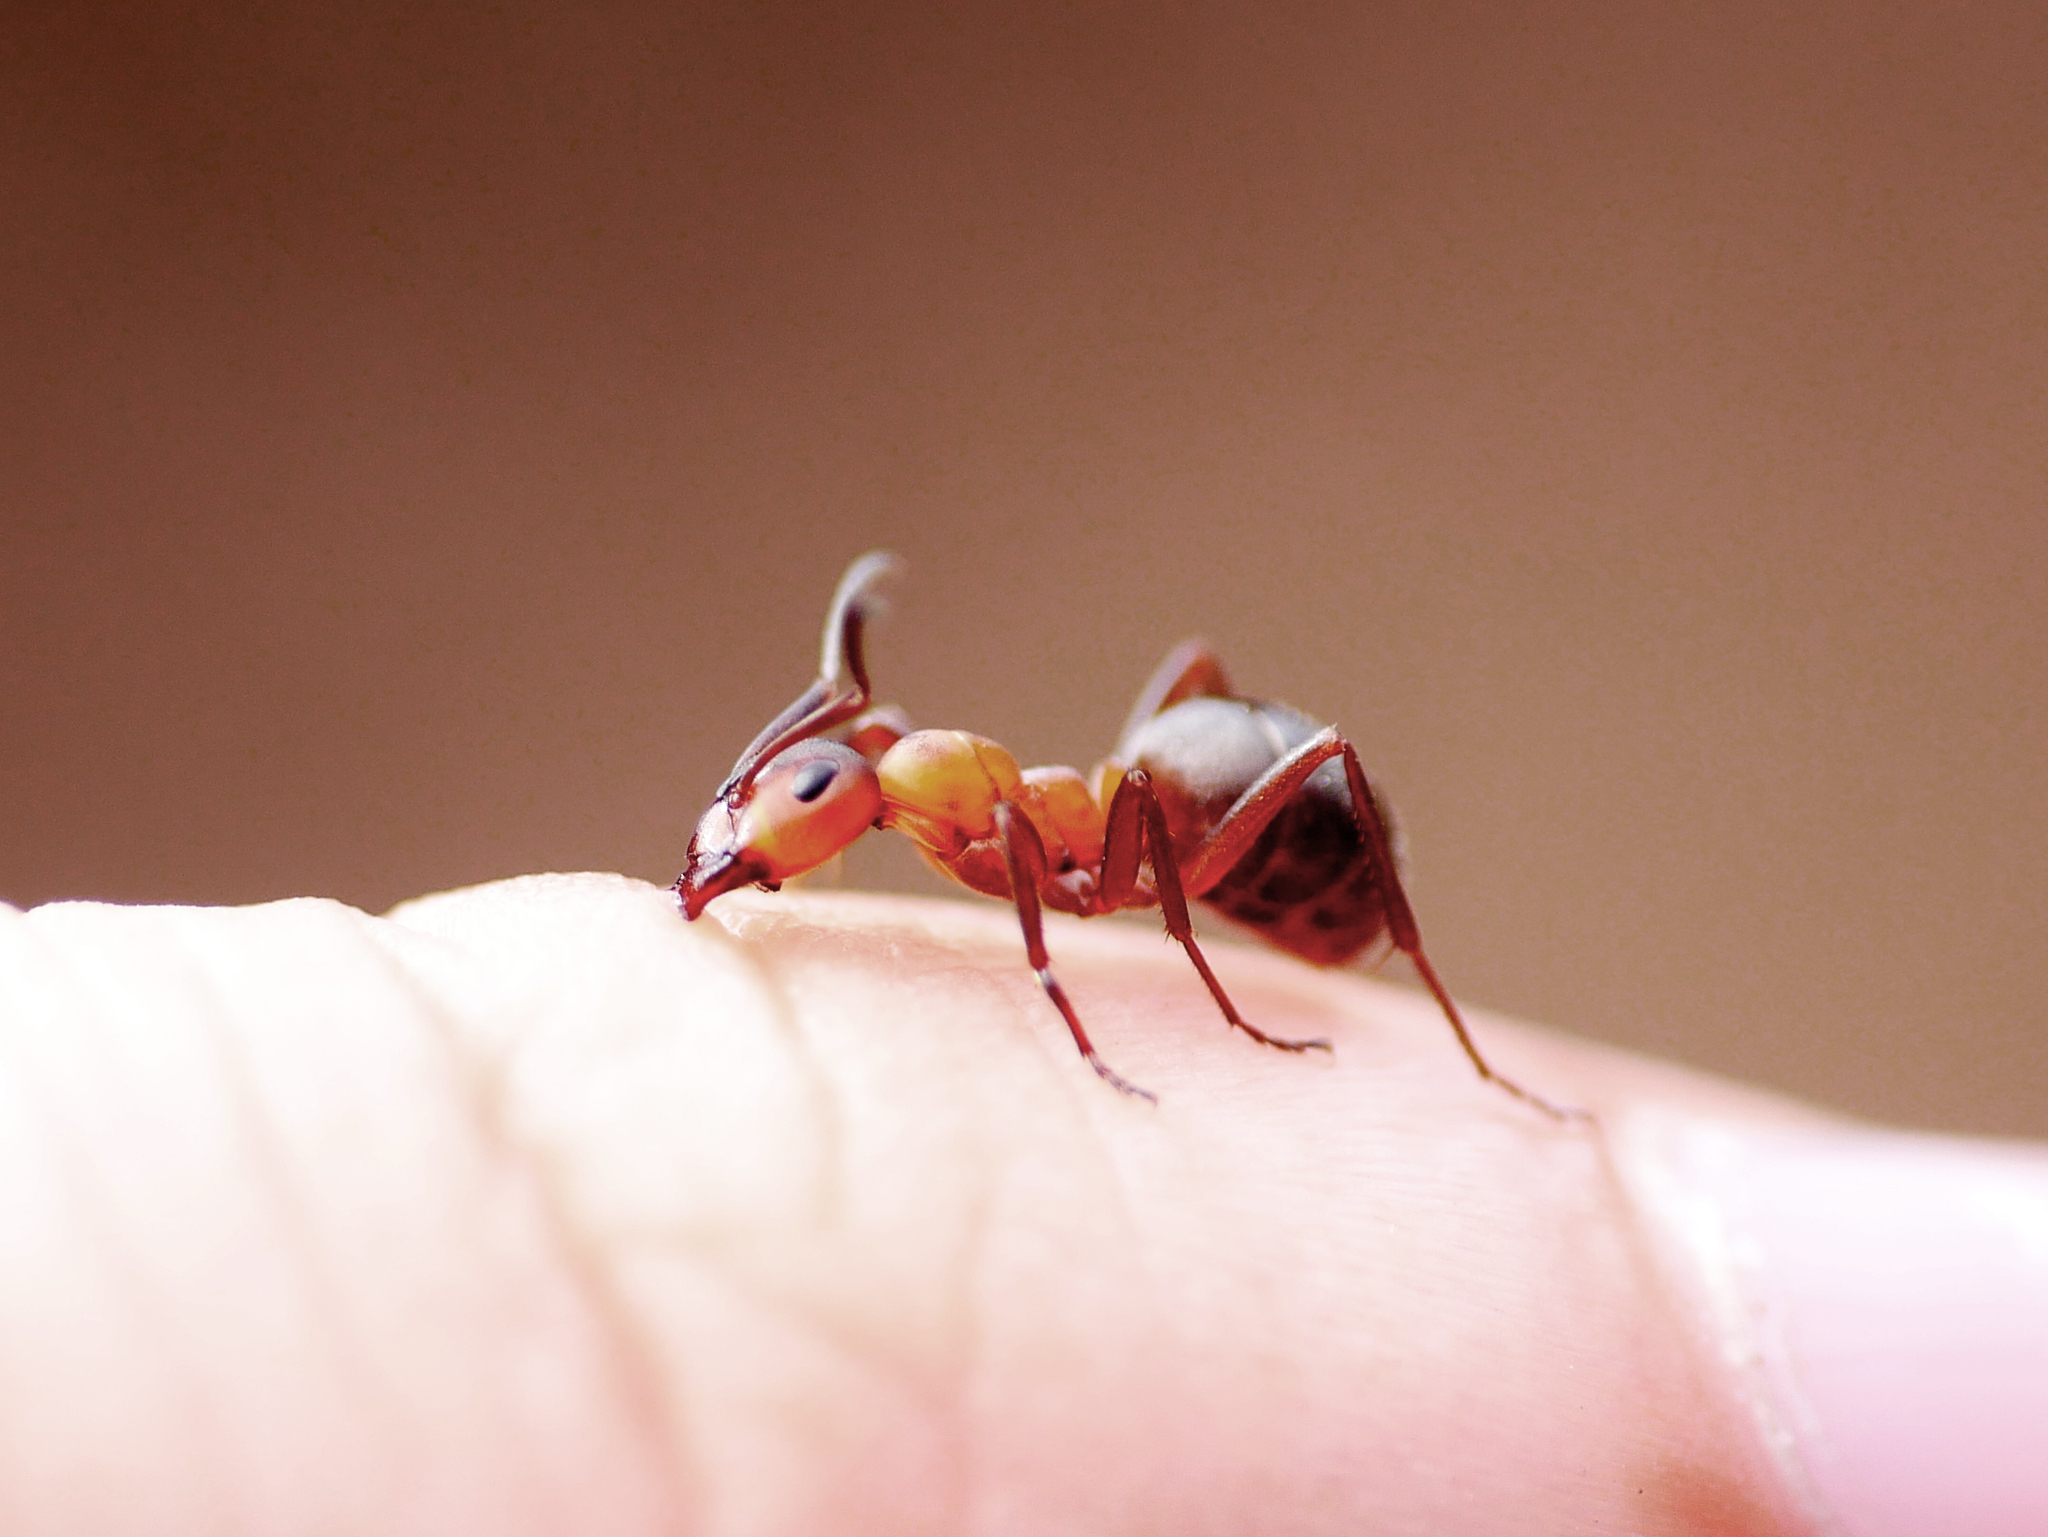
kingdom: Animalia
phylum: Arthropoda
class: Insecta
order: Hymenoptera
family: Formicidae
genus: Formica
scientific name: Formica polyctena
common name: European red wood ant
